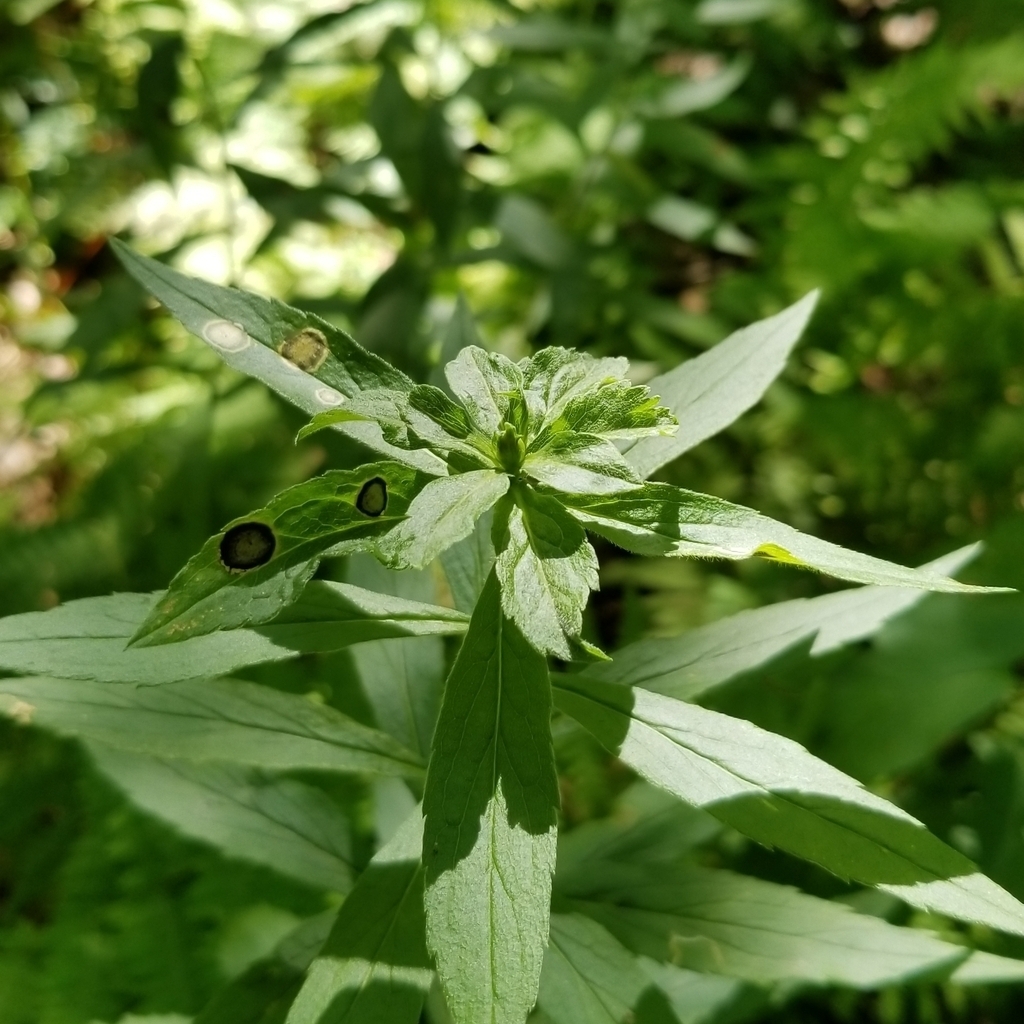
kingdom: Animalia
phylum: Arthropoda
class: Insecta
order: Diptera
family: Cecidomyiidae
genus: Asteromyia
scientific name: Asteromyia carbonifera
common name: Carbonifera goldenrod gall midge
